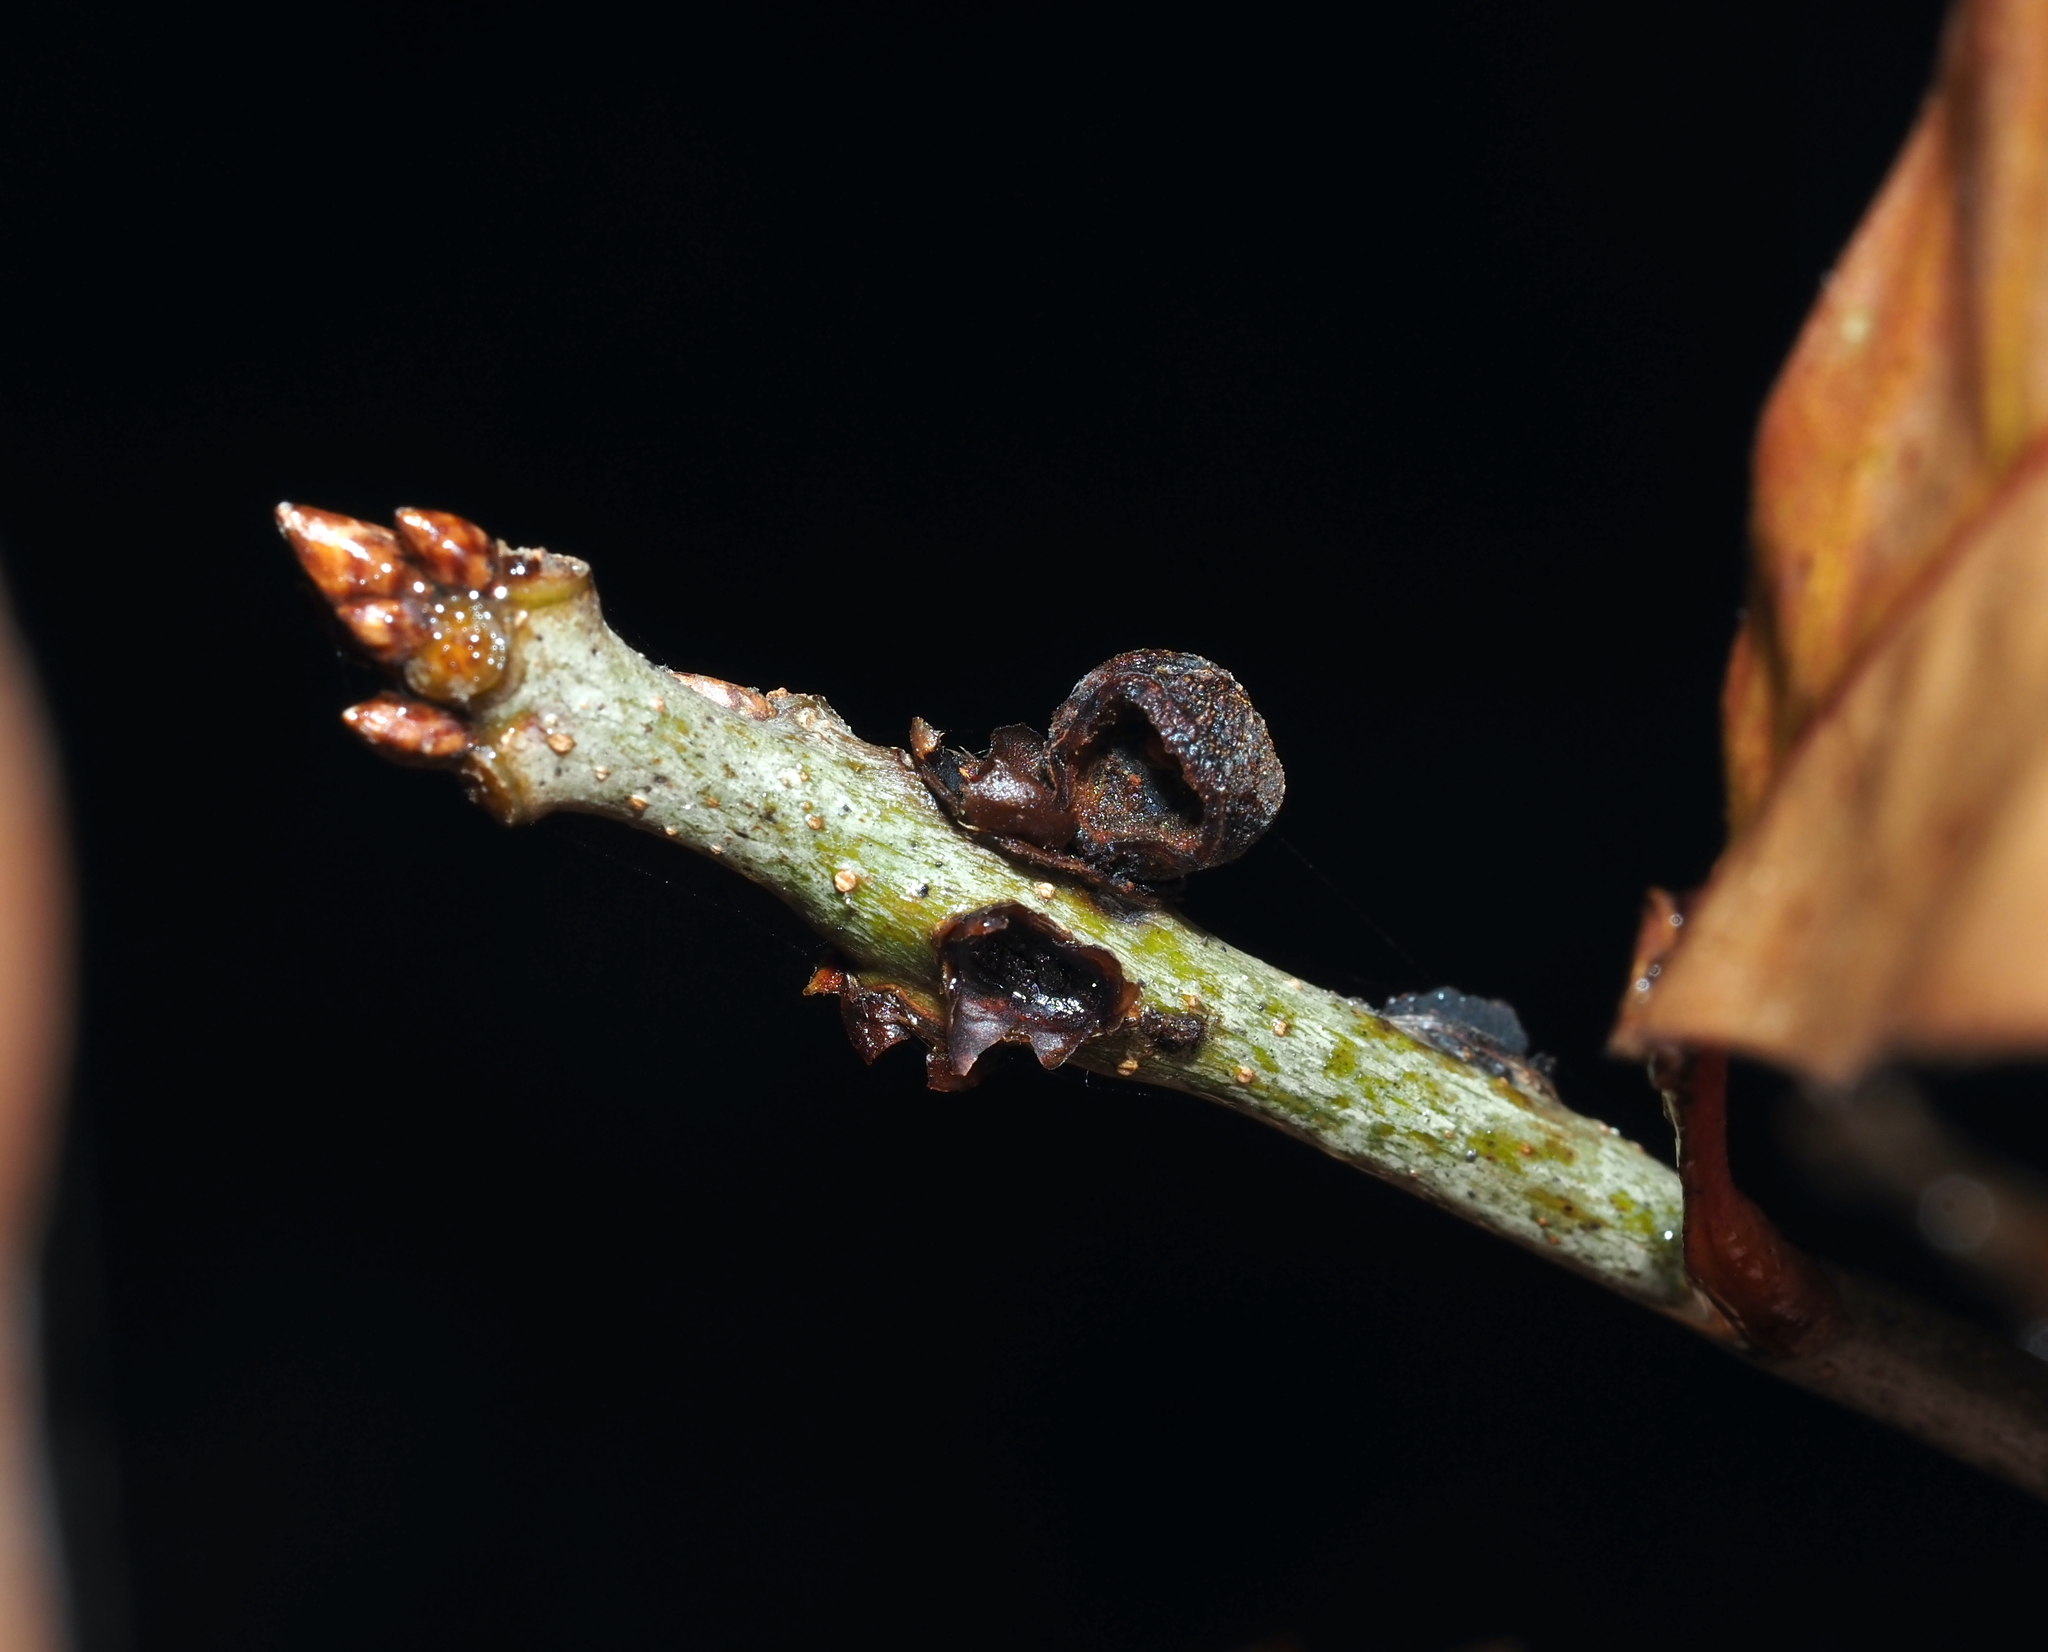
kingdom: Animalia
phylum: Arthropoda
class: Insecta
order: Hymenoptera
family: Cynipidae
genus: Kokkocynips
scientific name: Kokkocynips imbricariae
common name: Banded bullet gall wasp
